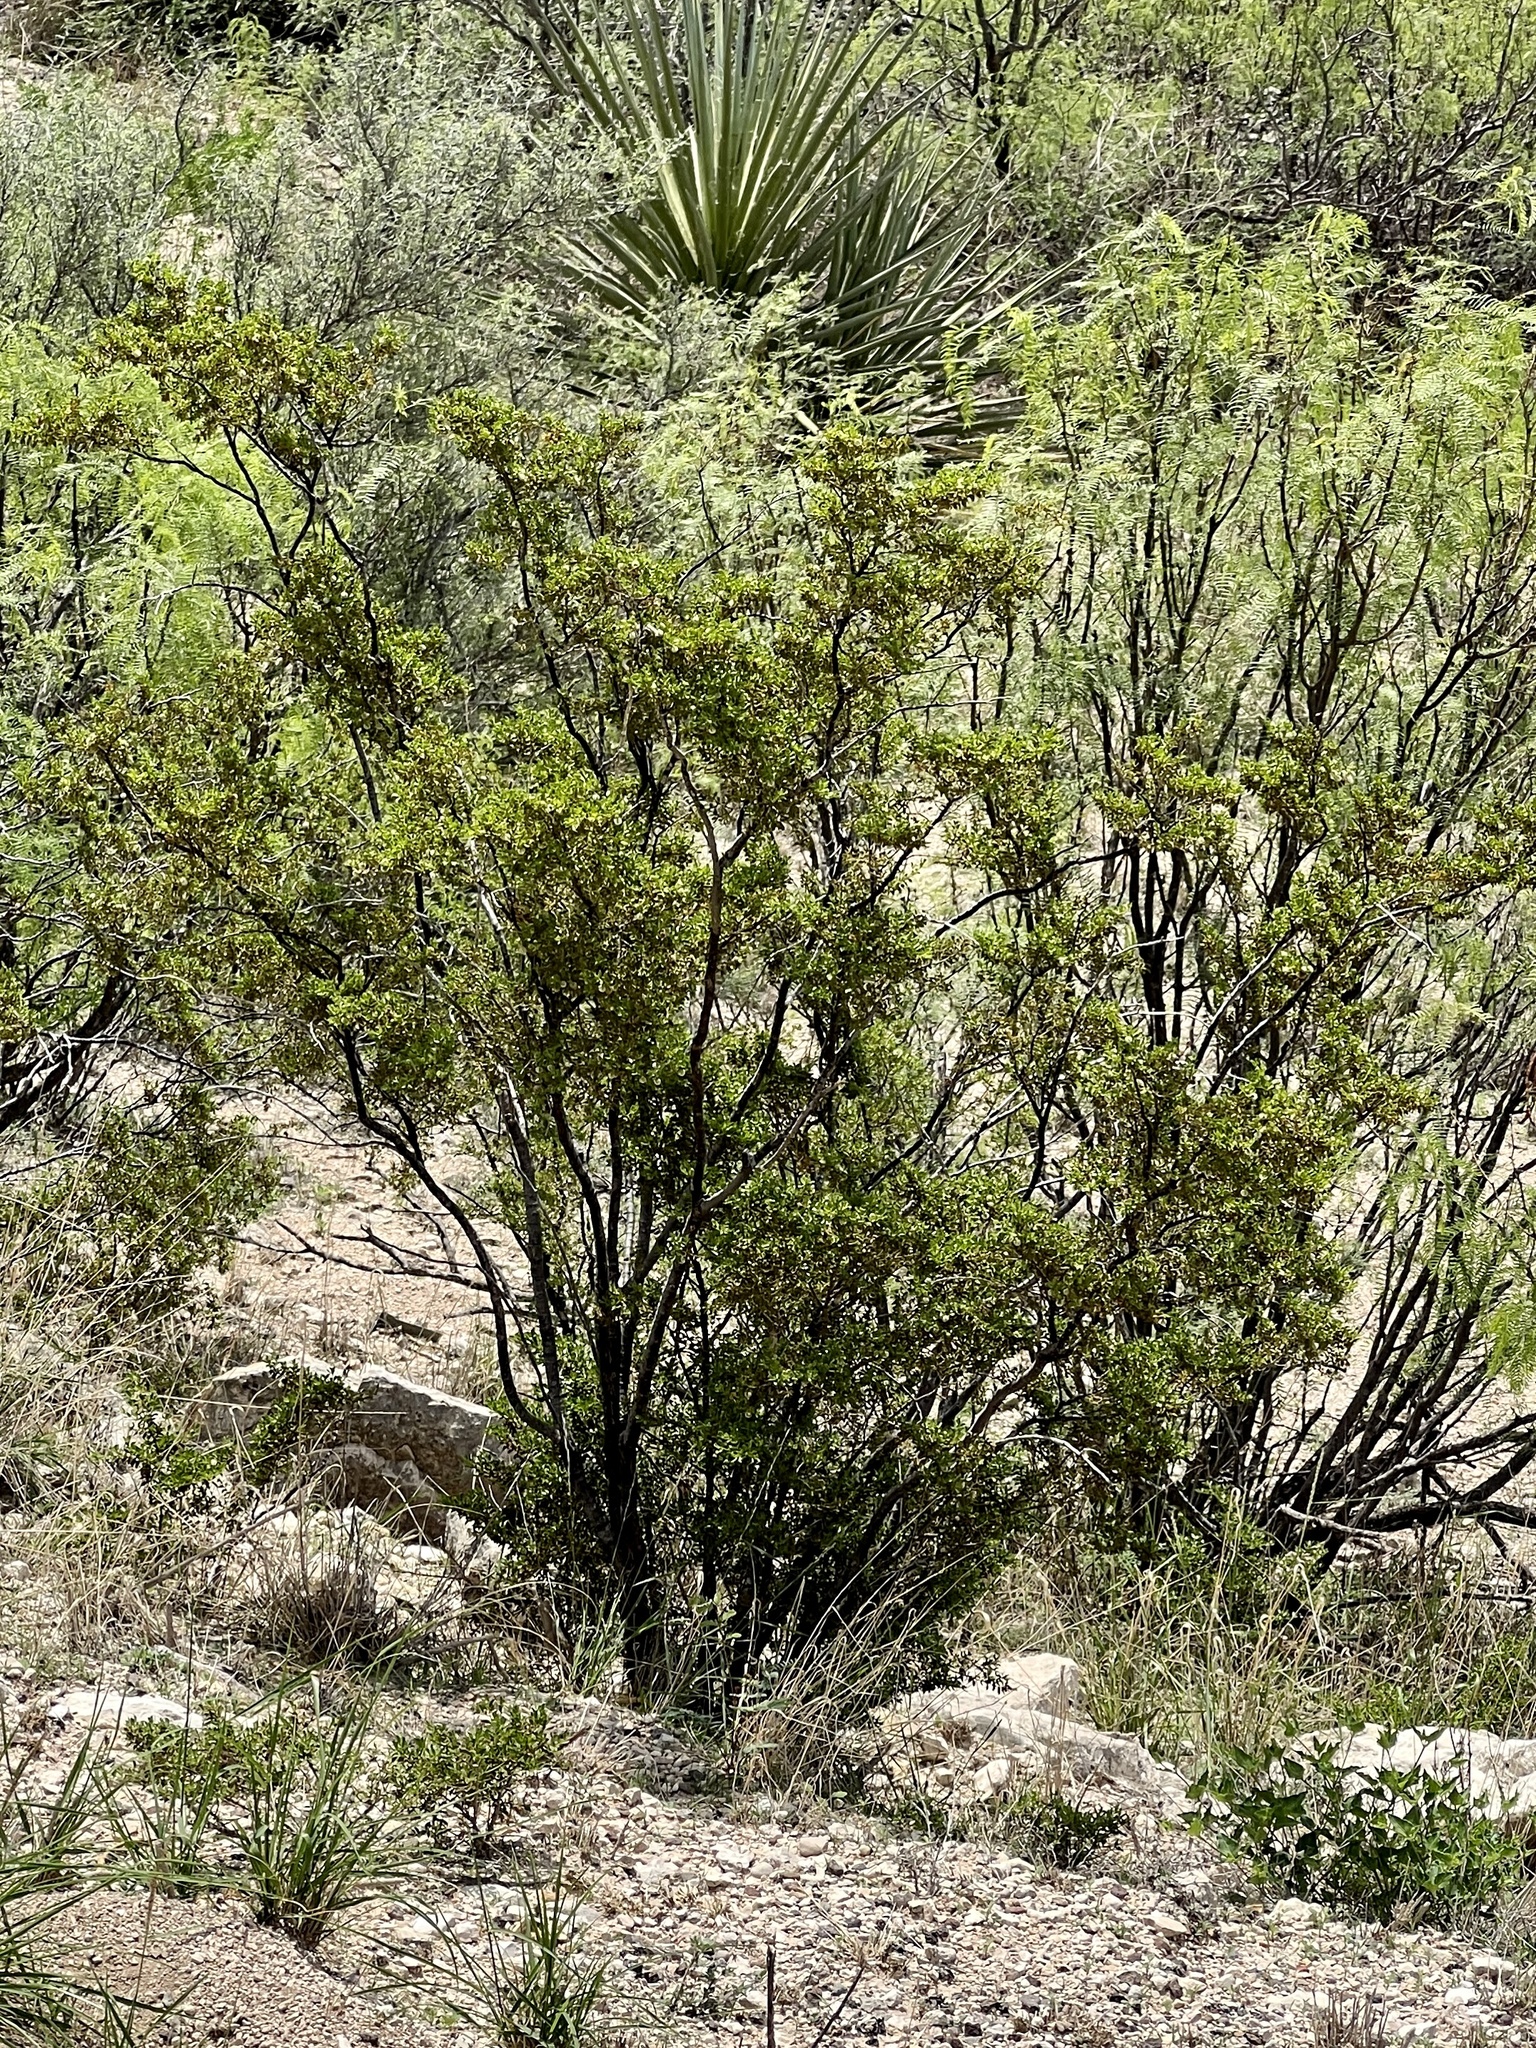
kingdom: Plantae
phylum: Tracheophyta
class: Magnoliopsida
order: Zygophyllales
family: Zygophyllaceae
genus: Larrea
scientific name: Larrea tridentata
